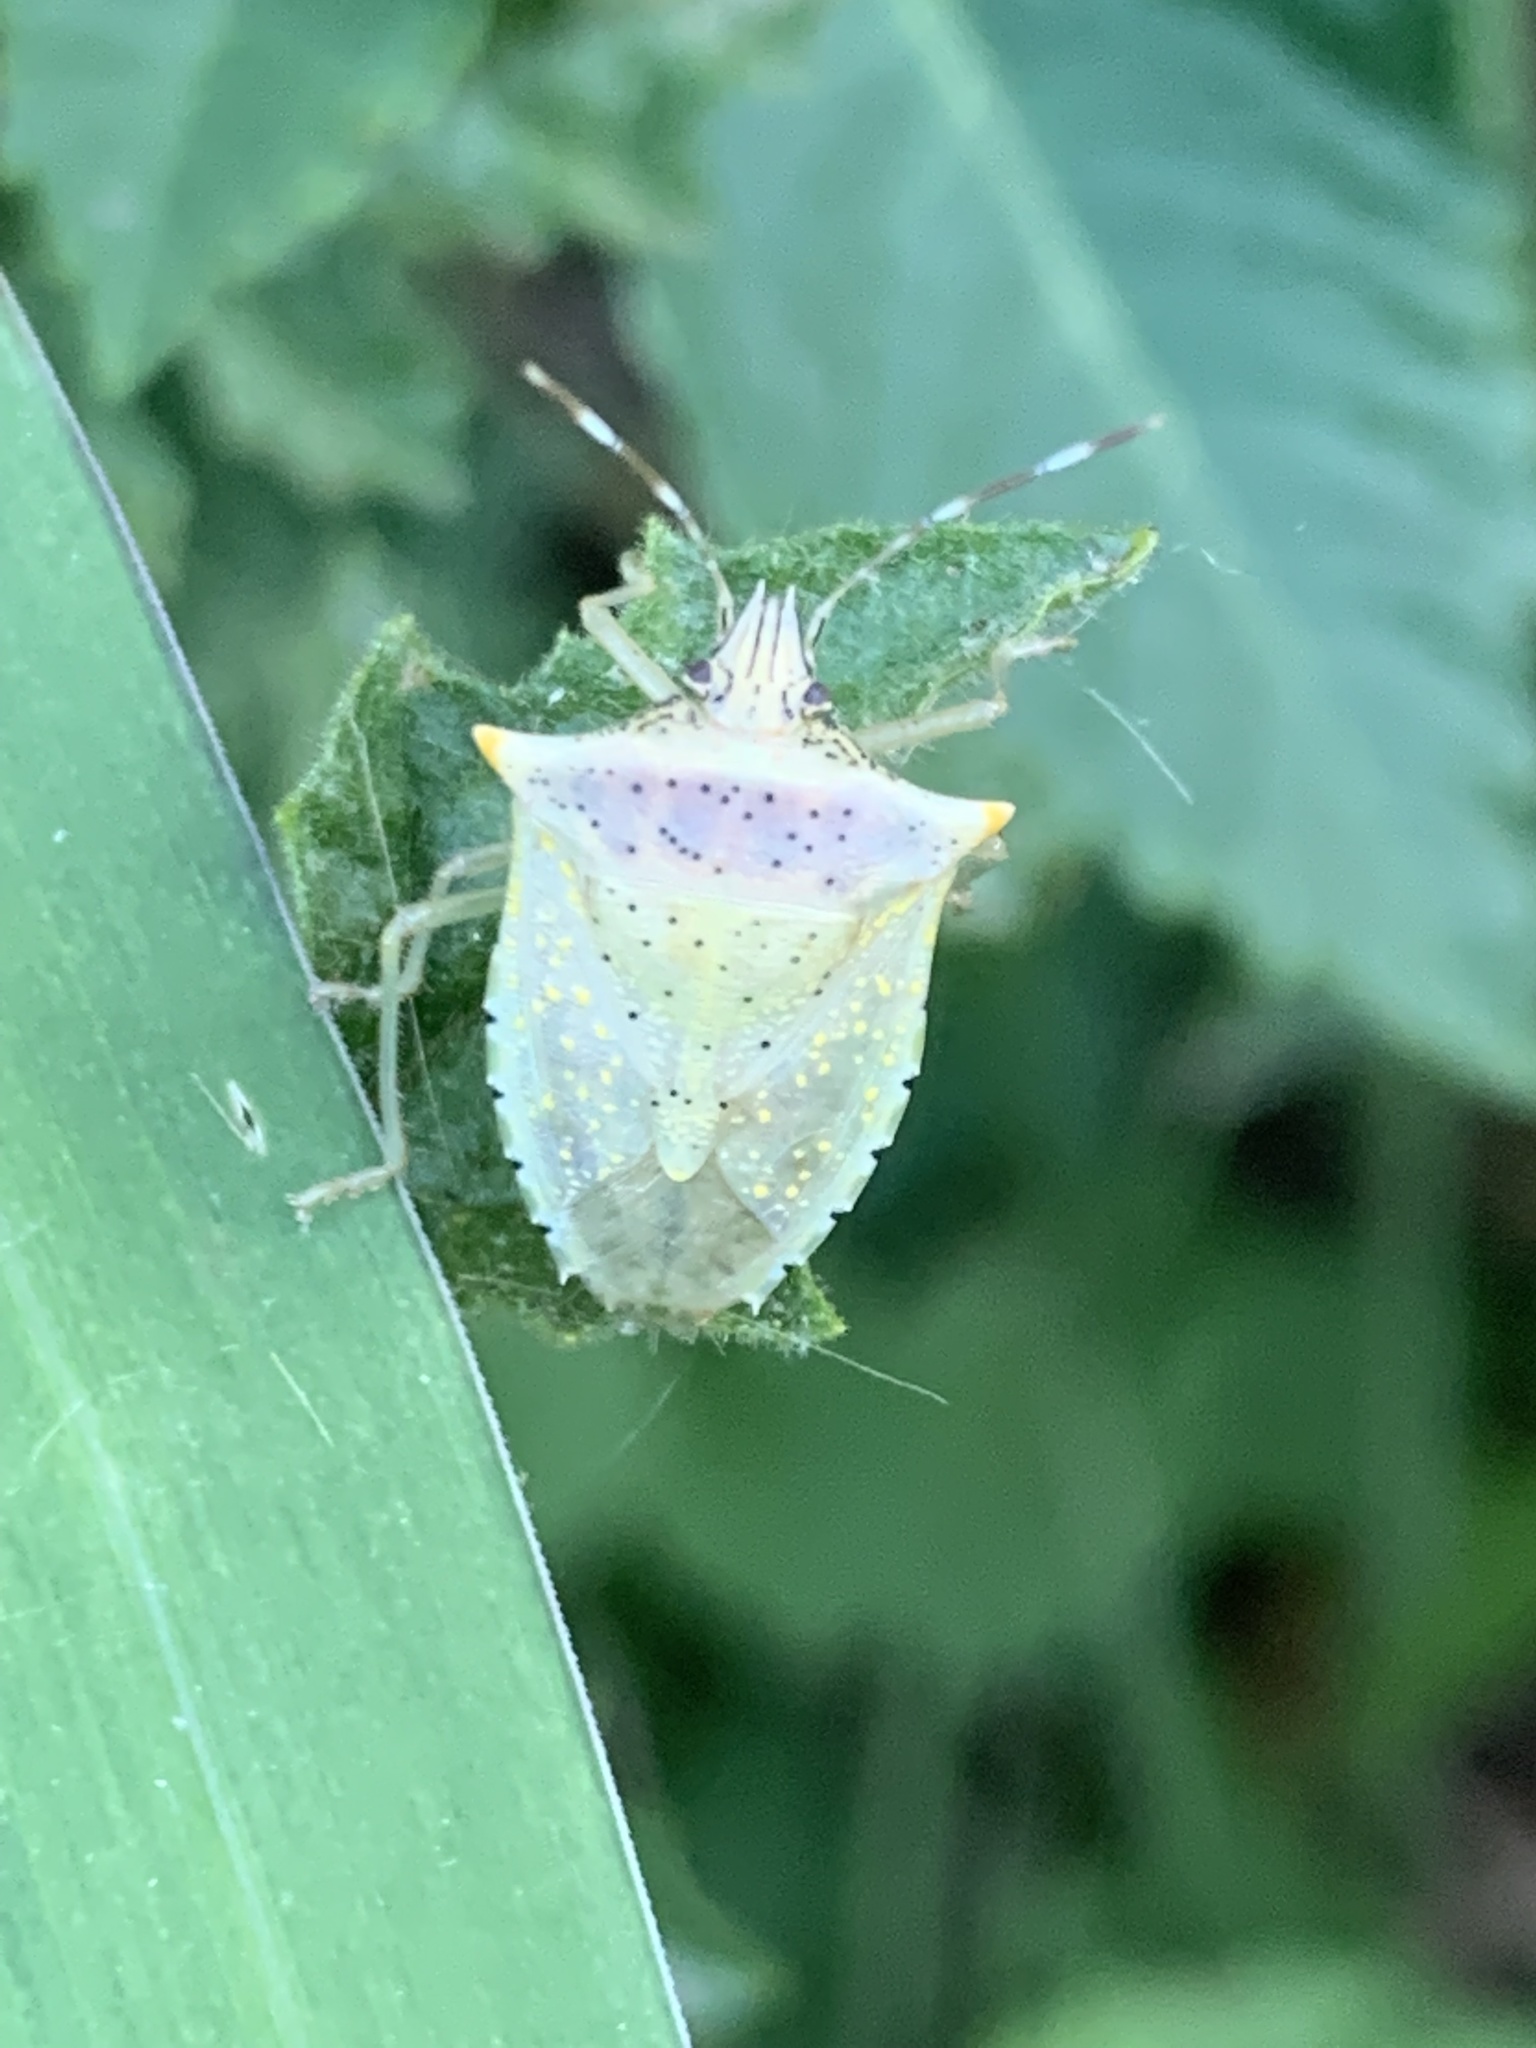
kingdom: Animalia
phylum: Arthropoda
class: Insecta
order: Hemiptera
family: Pentatomidae
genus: Arvelius
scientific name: Arvelius albopunctatus
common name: Tomato stink bug
